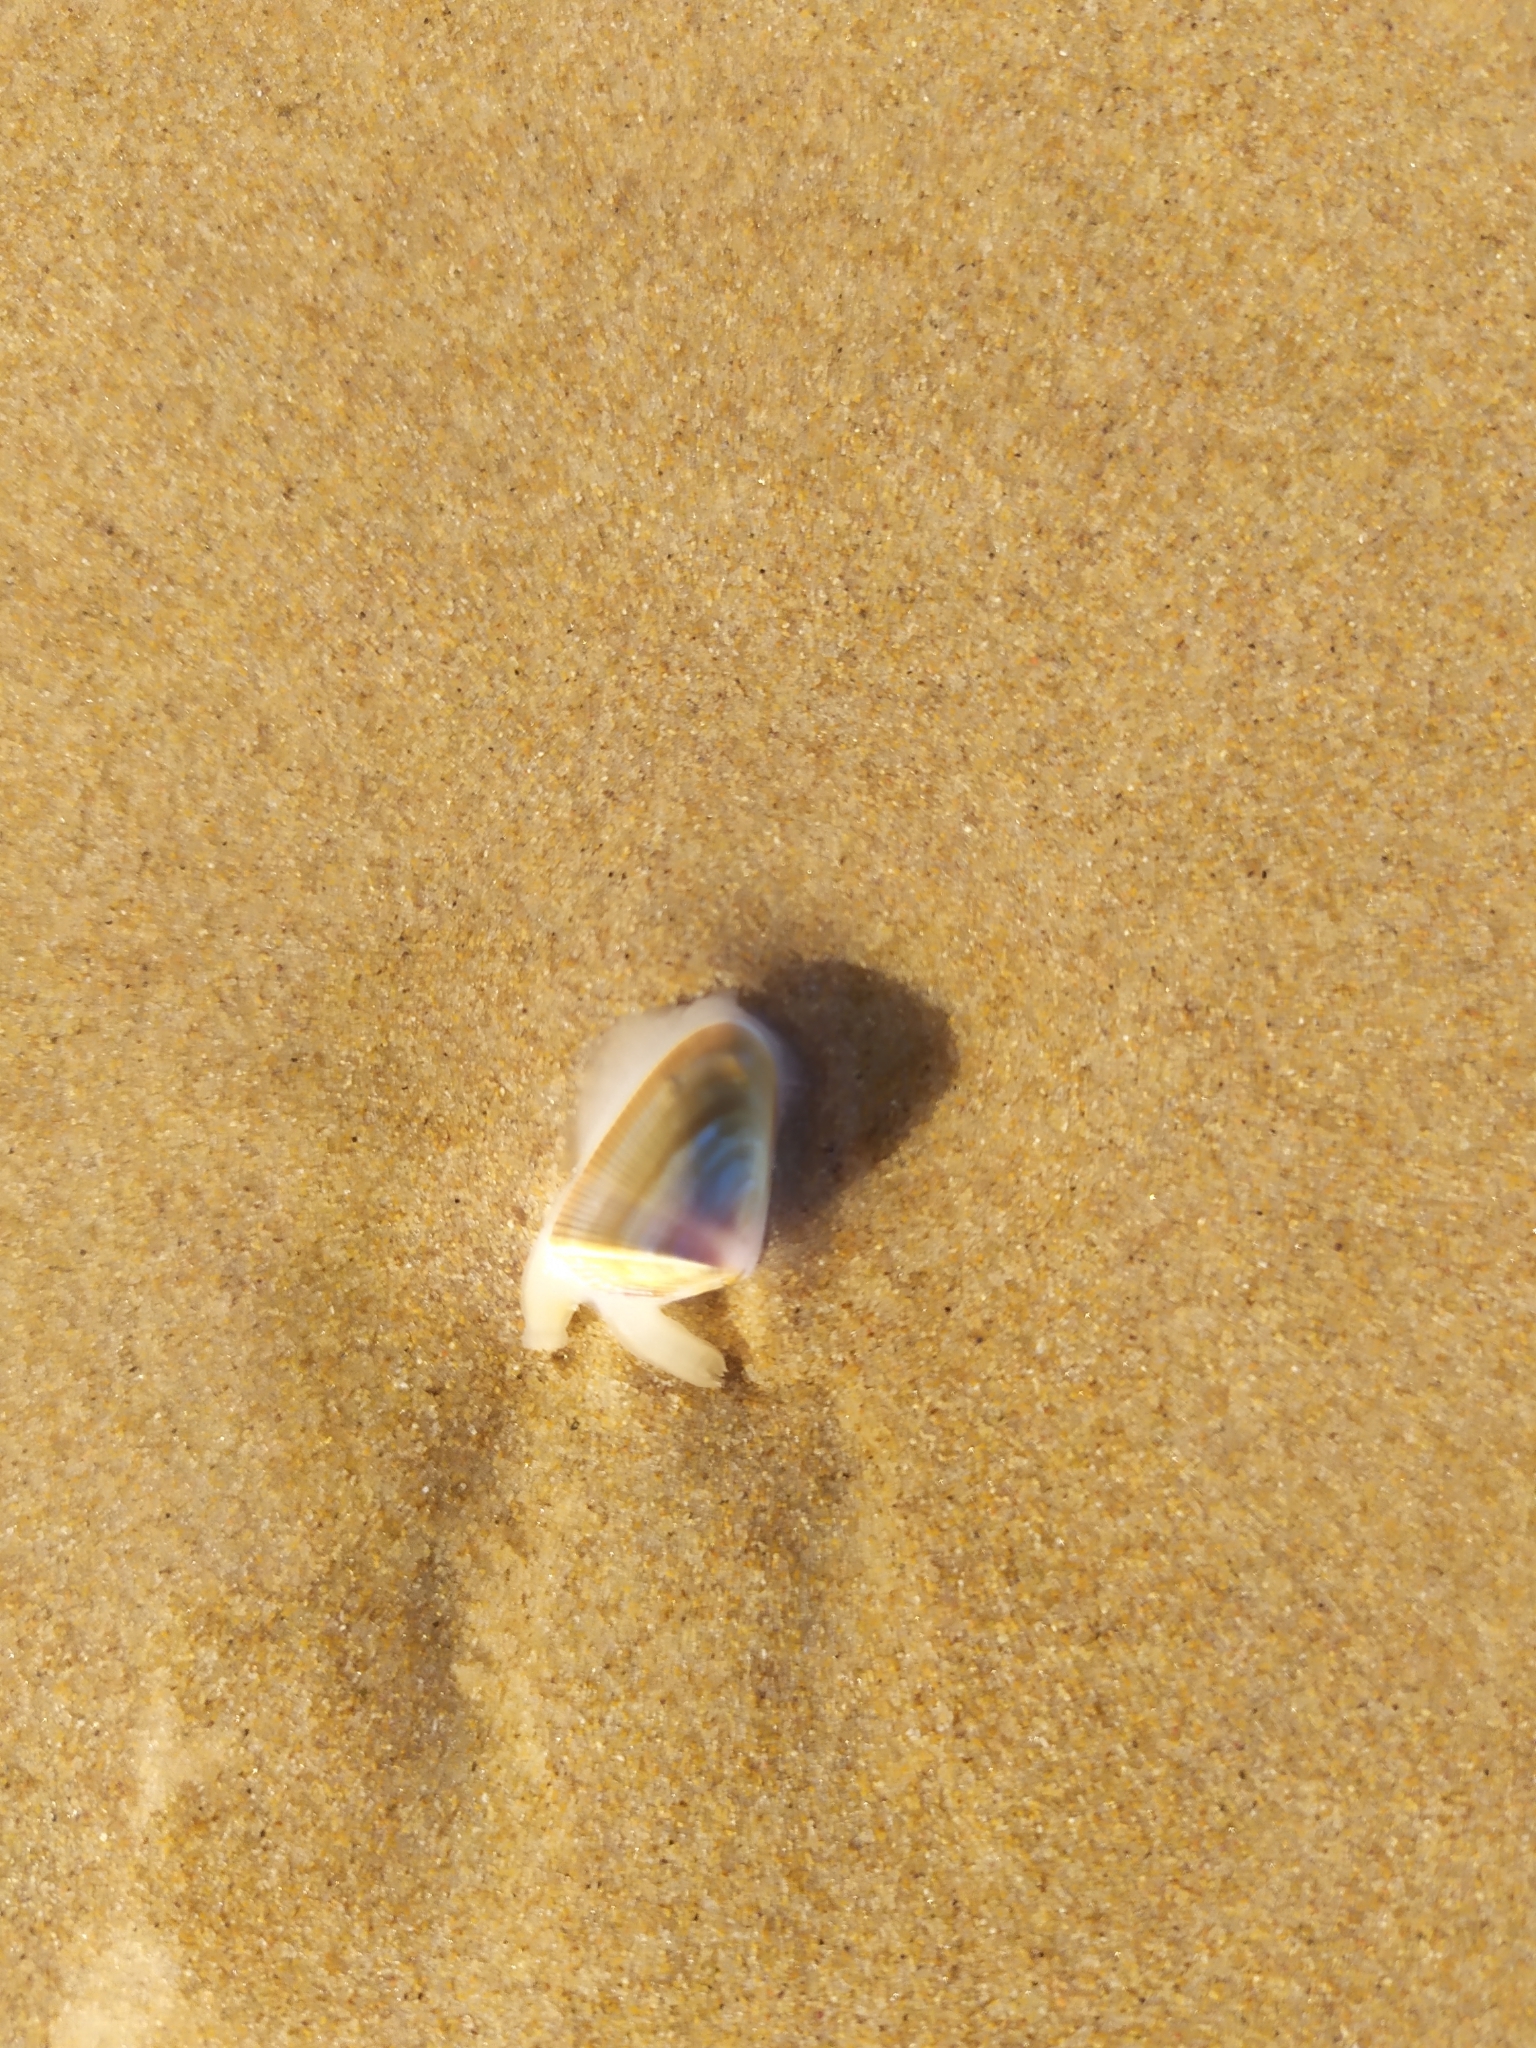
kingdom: Animalia
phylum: Mollusca
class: Bivalvia
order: Cardiida
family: Donacidae
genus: Donax
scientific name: Donax hanleyanus
